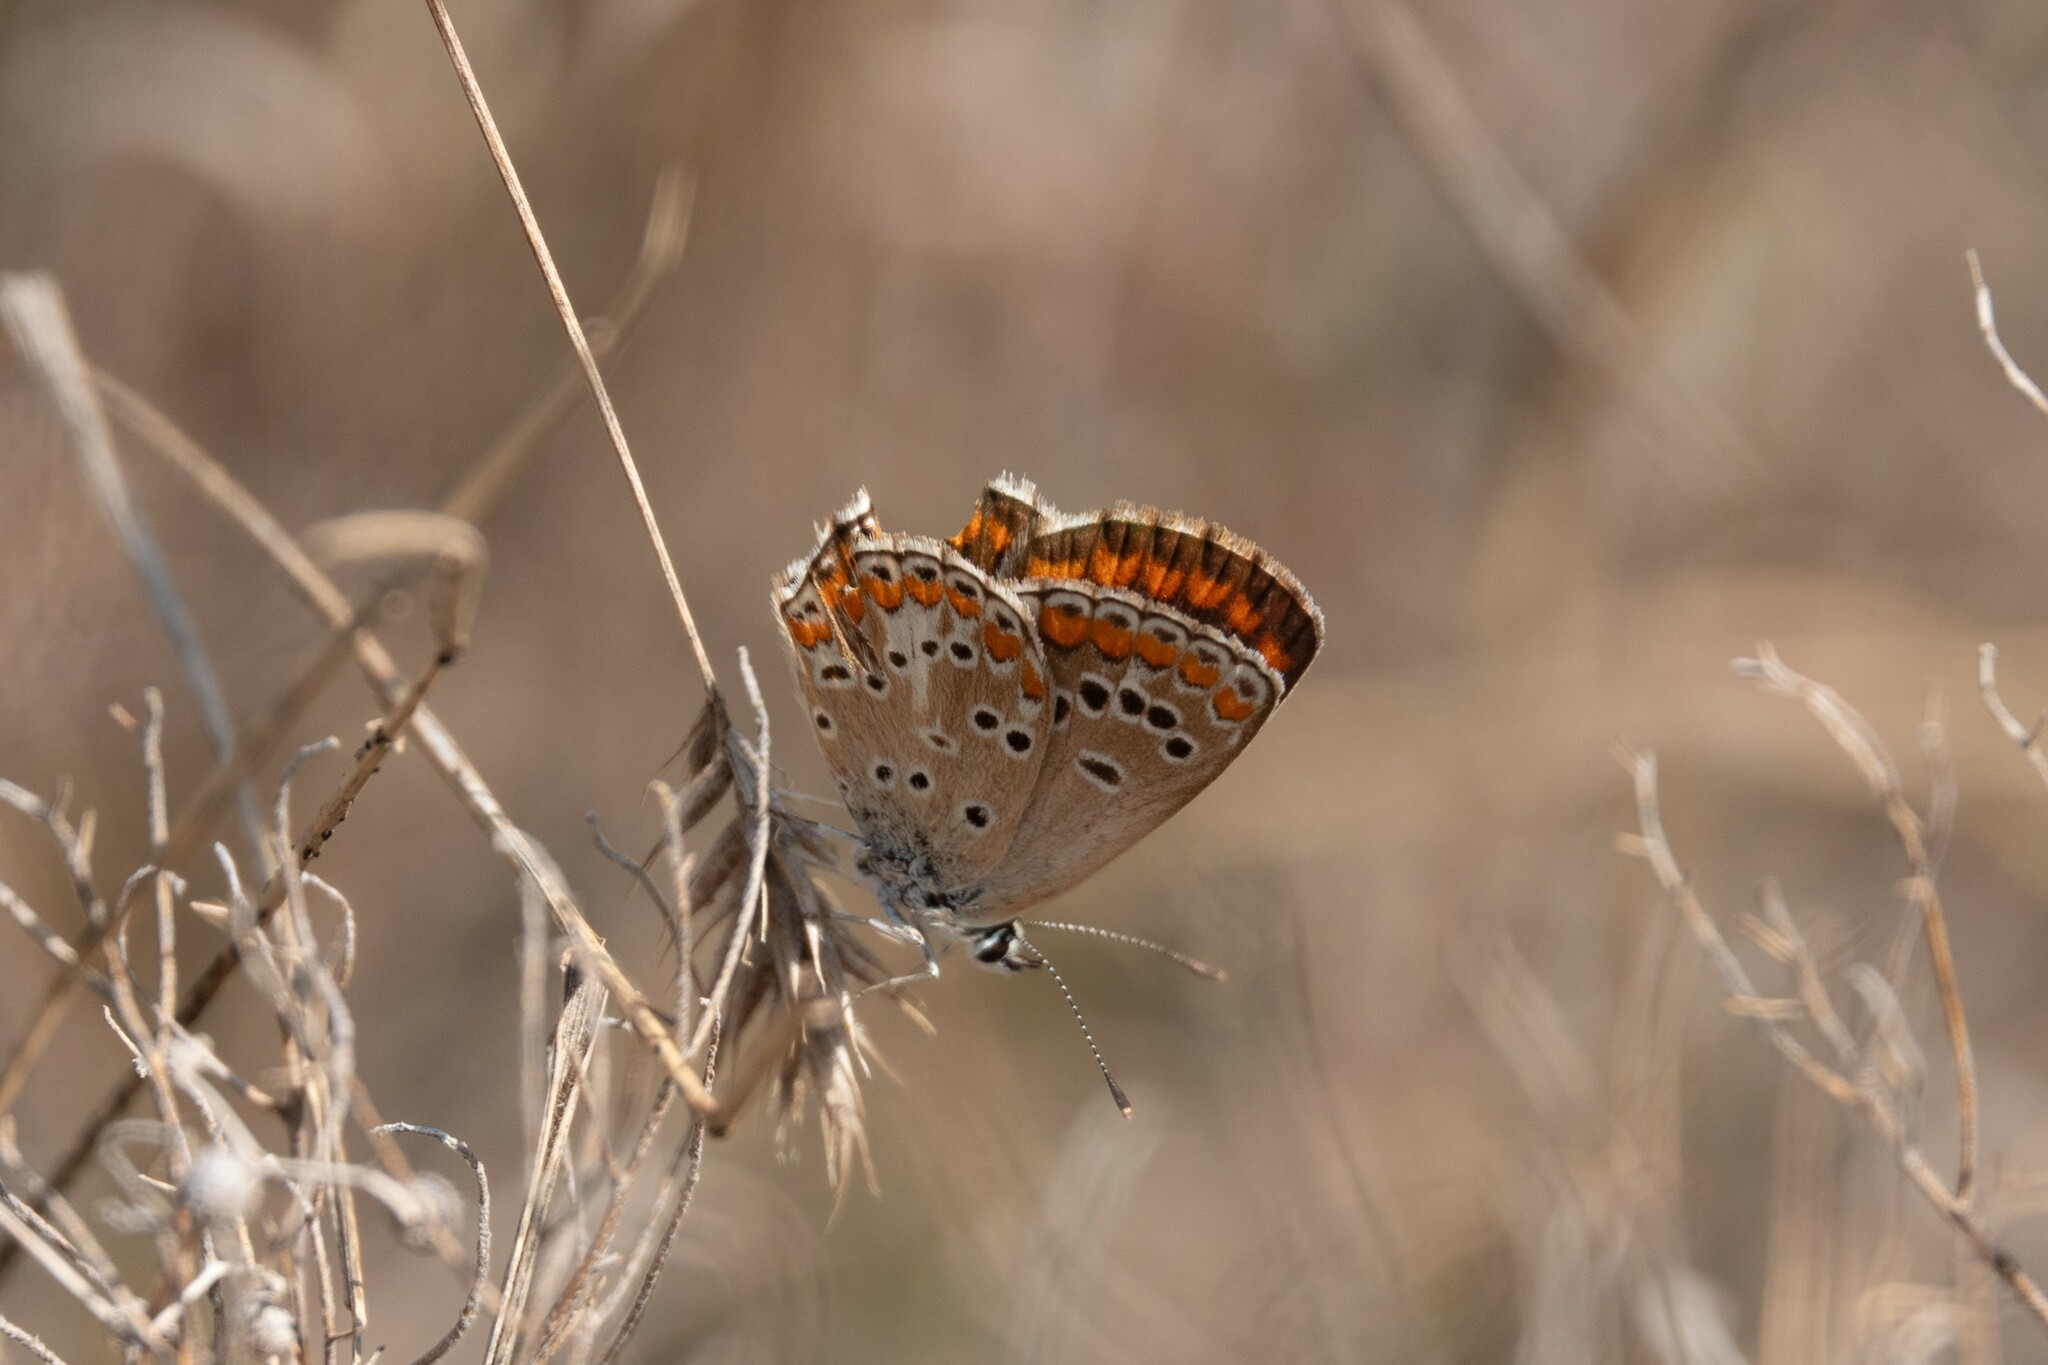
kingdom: Animalia
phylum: Arthropoda
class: Insecta
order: Lepidoptera
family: Lycaenidae
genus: Aricia
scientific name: Aricia agestis
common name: Brown argus
